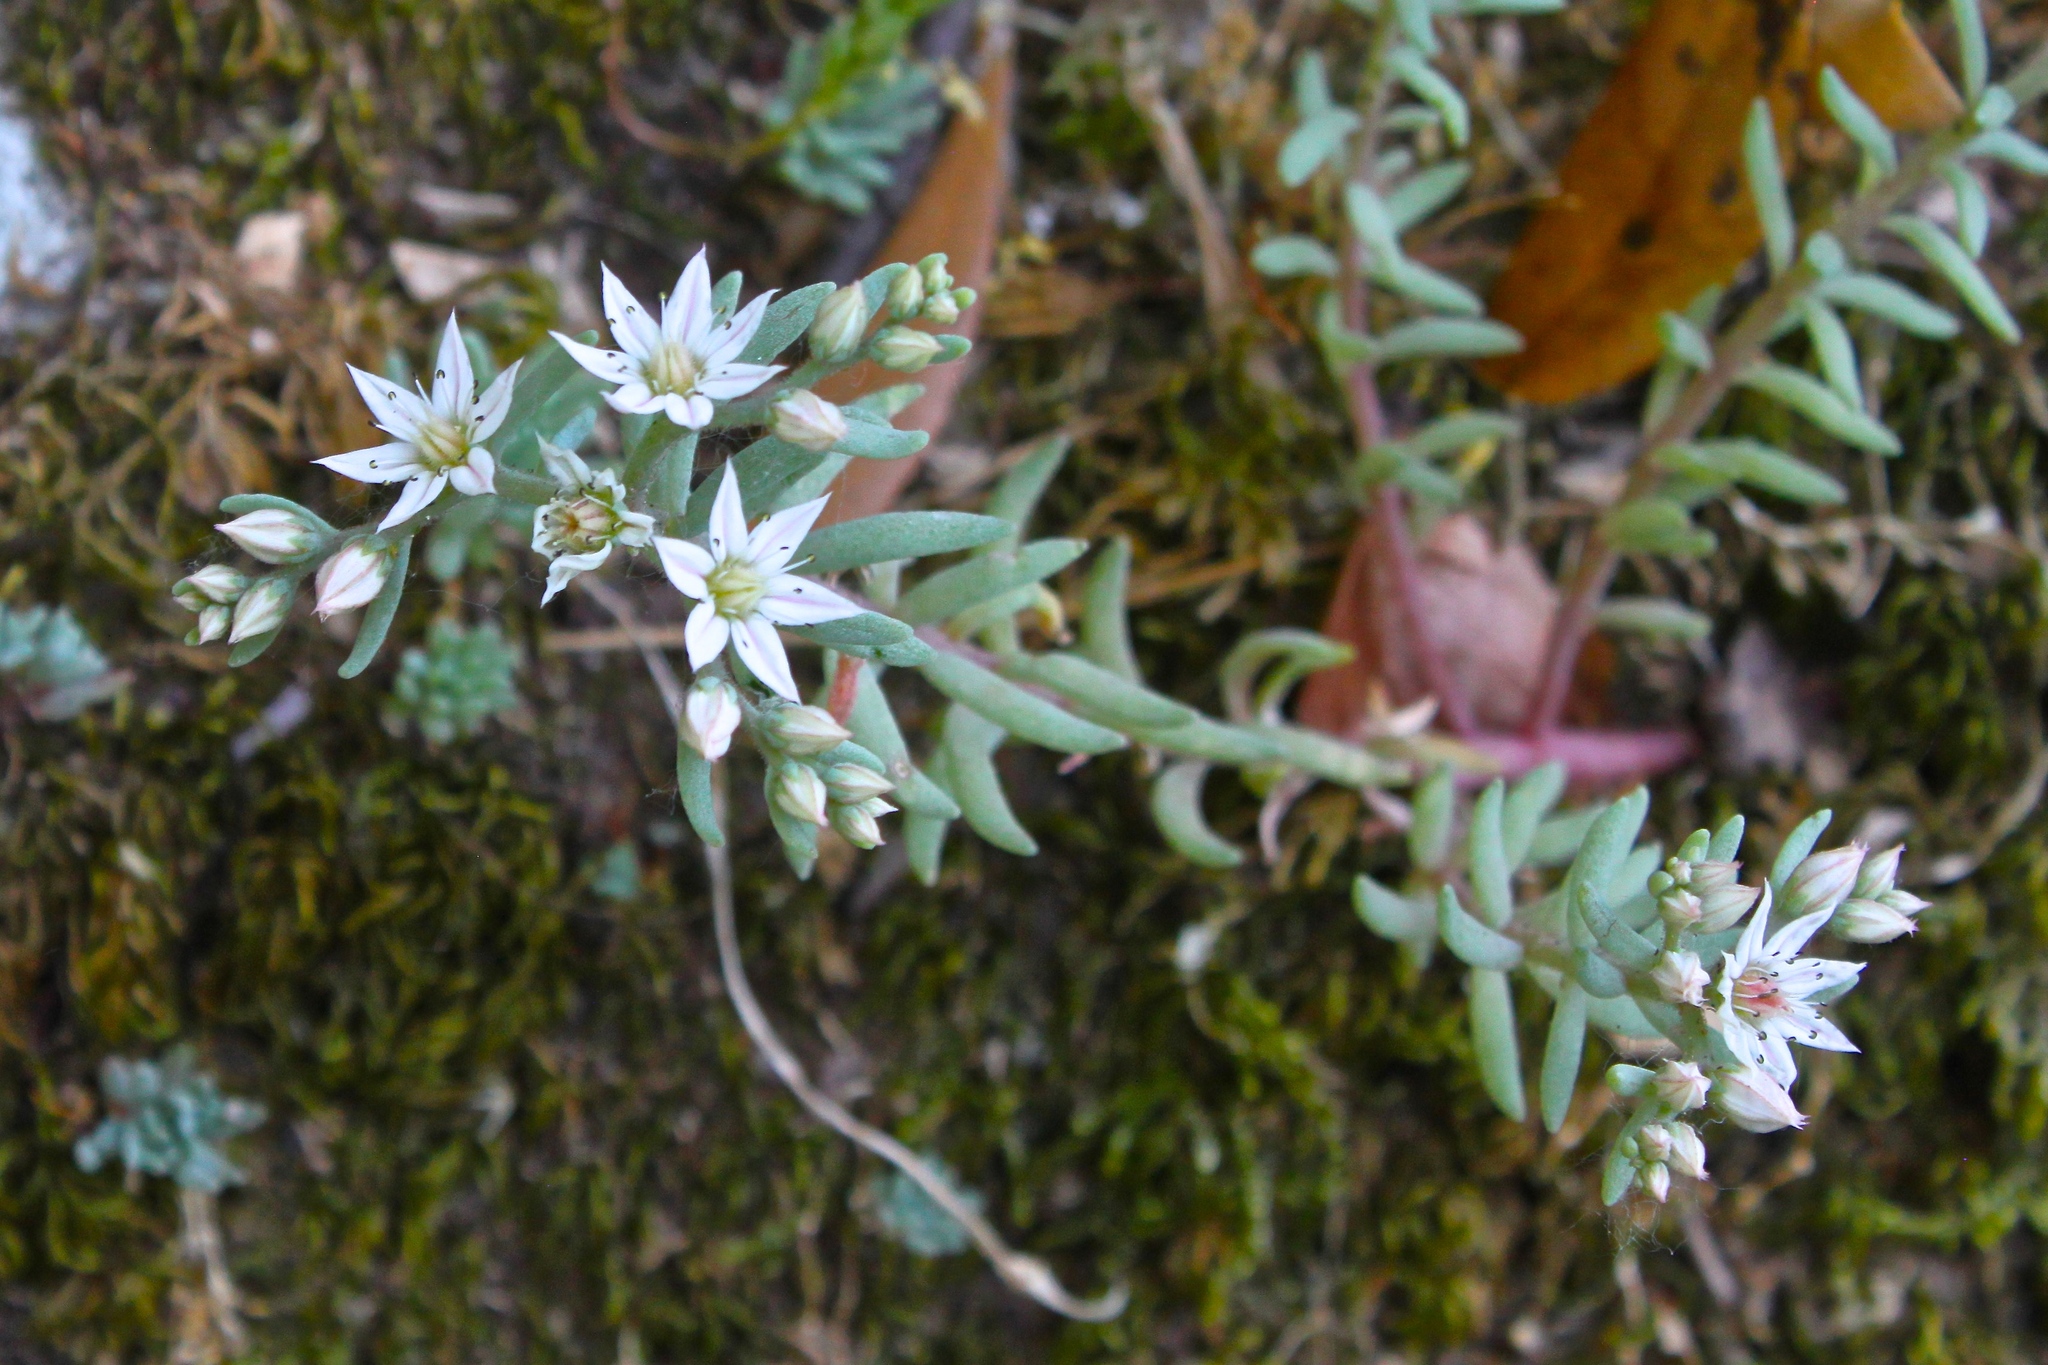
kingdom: Plantae
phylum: Tracheophyta
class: Magnoliopsida
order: Saxifragales
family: Crassulaceae
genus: Sedum
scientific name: Sedum hispanicum
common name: Spanish stonecrop
